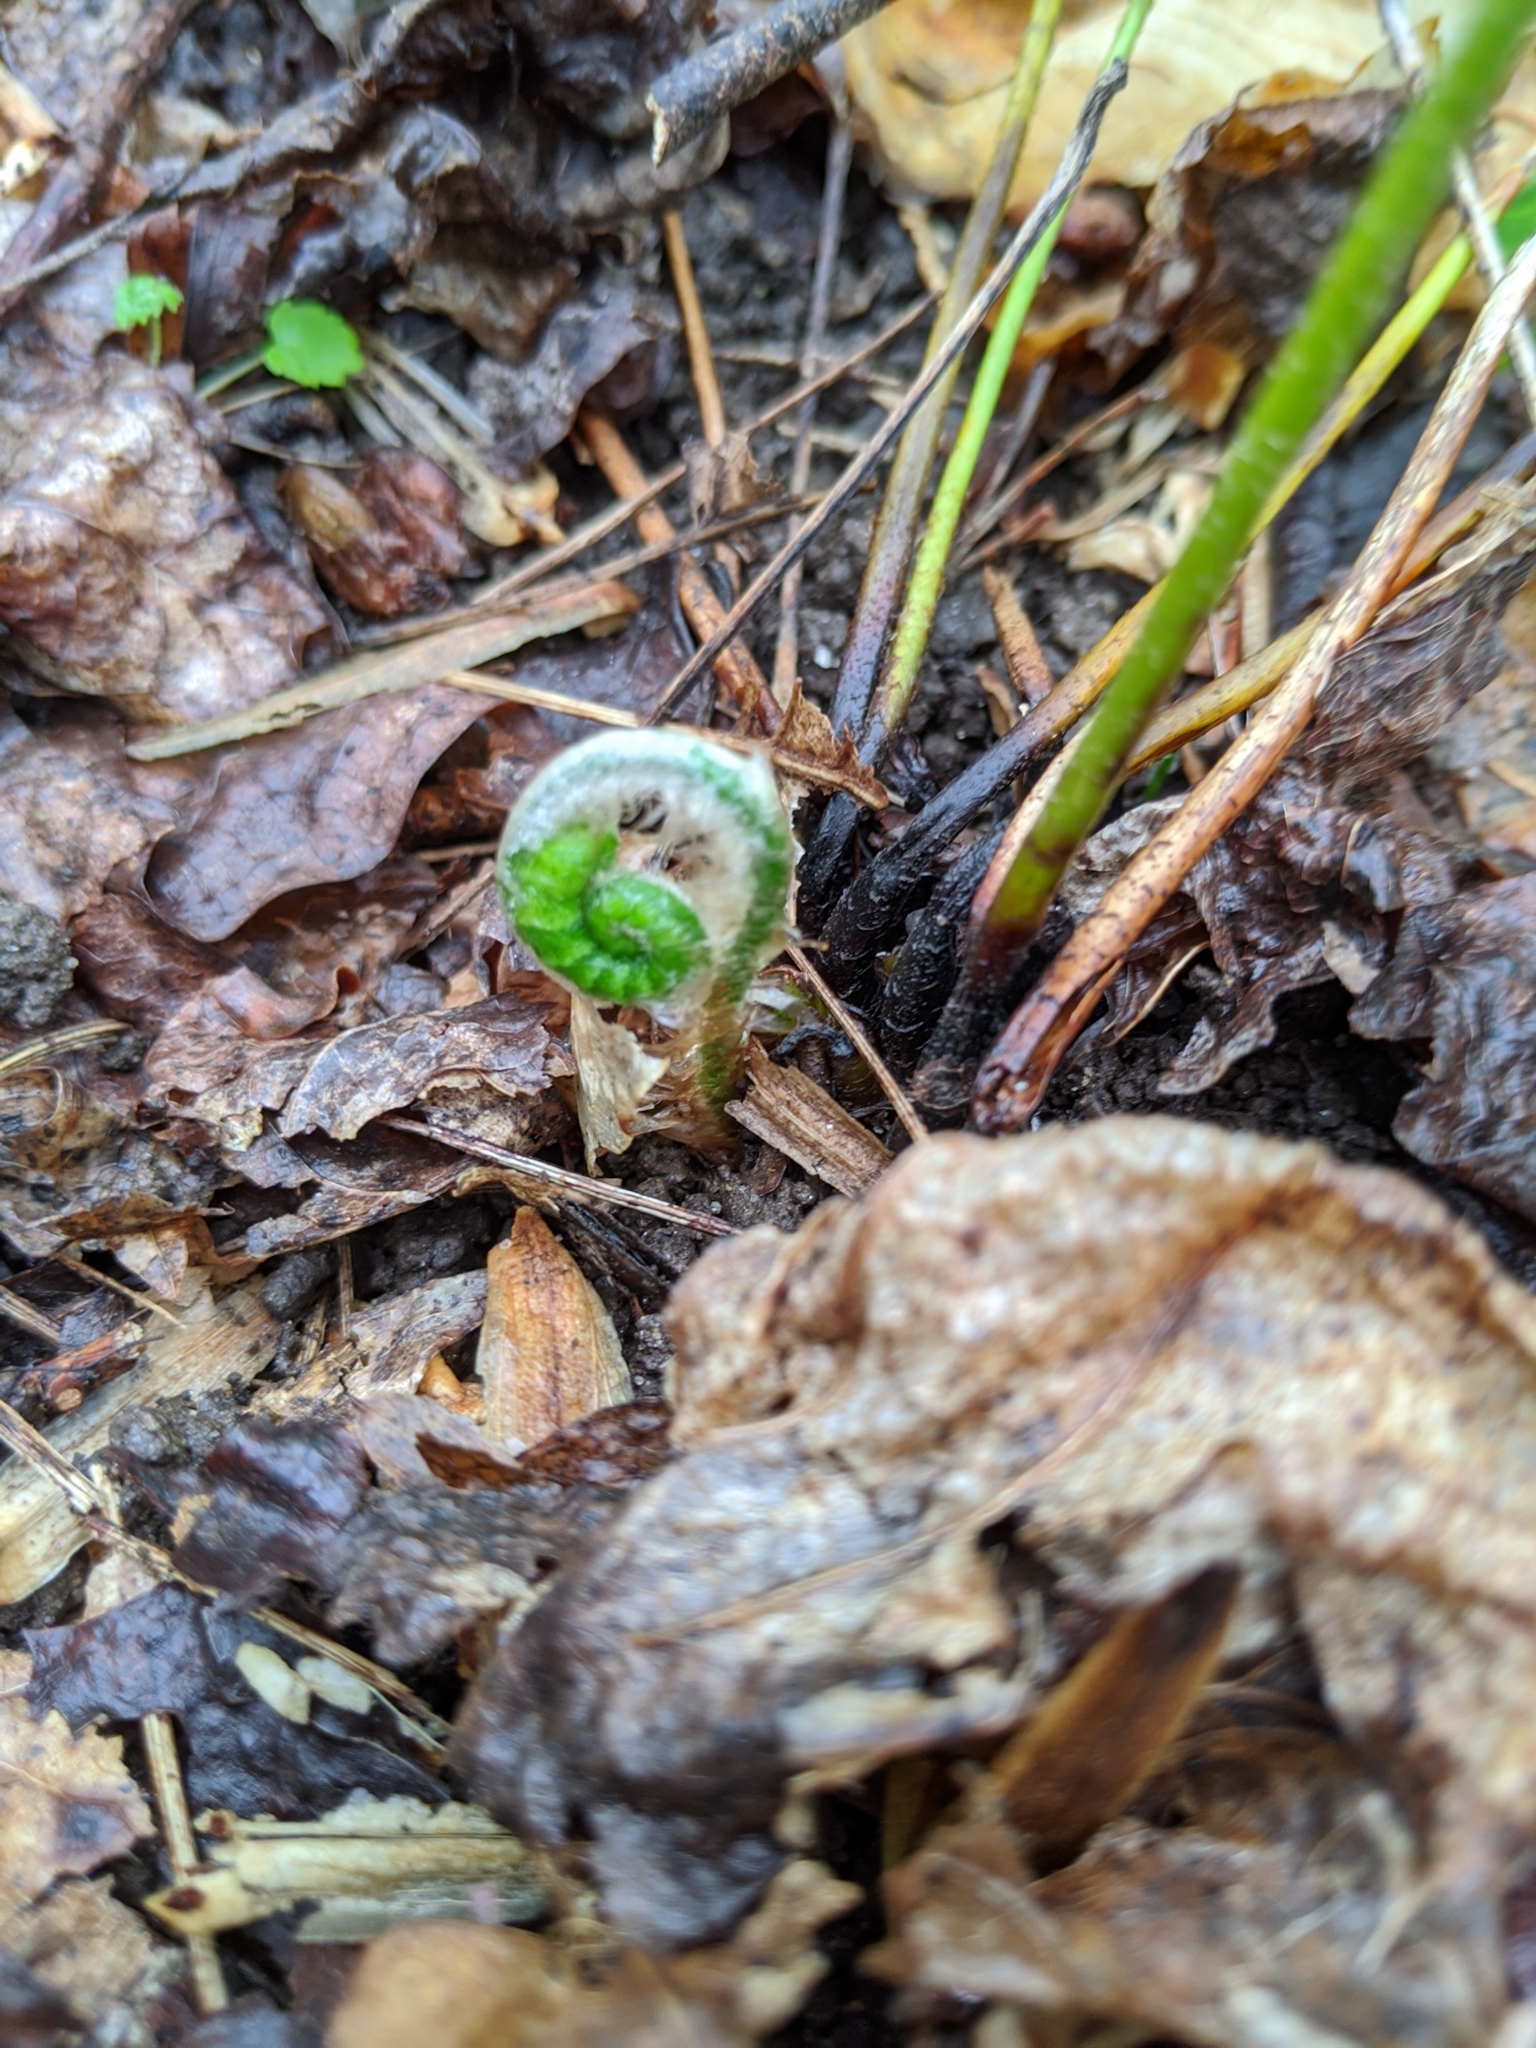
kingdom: Plantae
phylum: Tracheophyta
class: Polypodiopsida
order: Polypodiales
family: Dryopteridaceae
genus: Polystichum
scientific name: Polystichum acrostichoides
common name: Christmas fern
